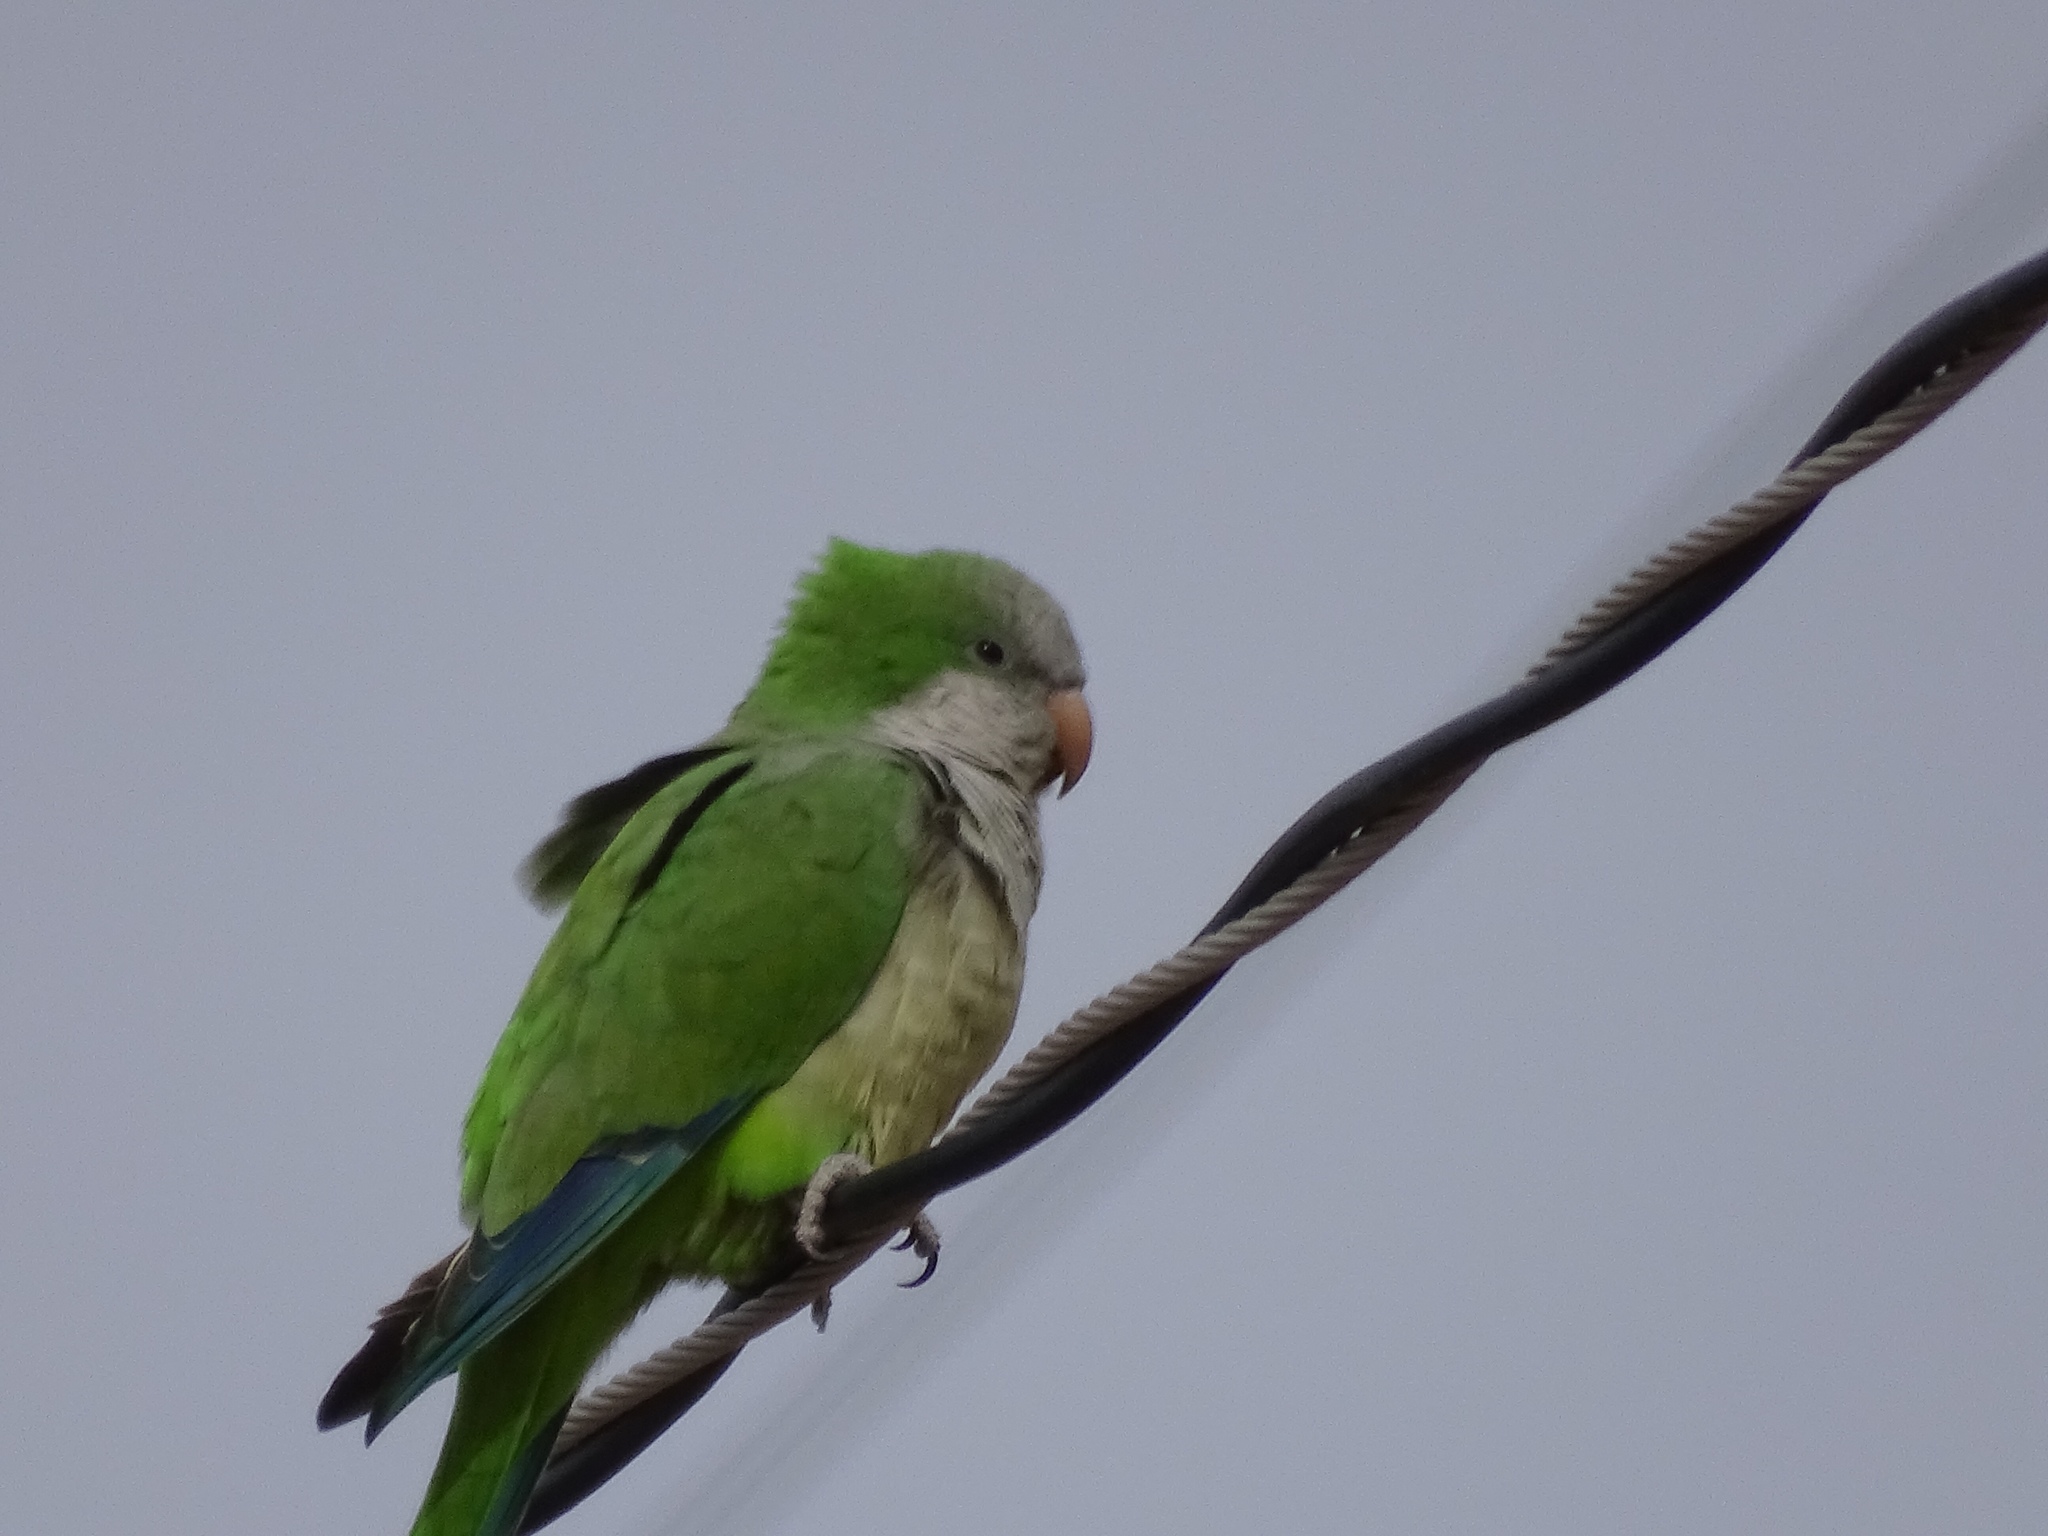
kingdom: Animalia
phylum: Chordata
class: Aves
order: Psittaciformes
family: Psittacidae
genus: Myiopsitta
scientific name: Myiopsitta monachus
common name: Monk parakeet
